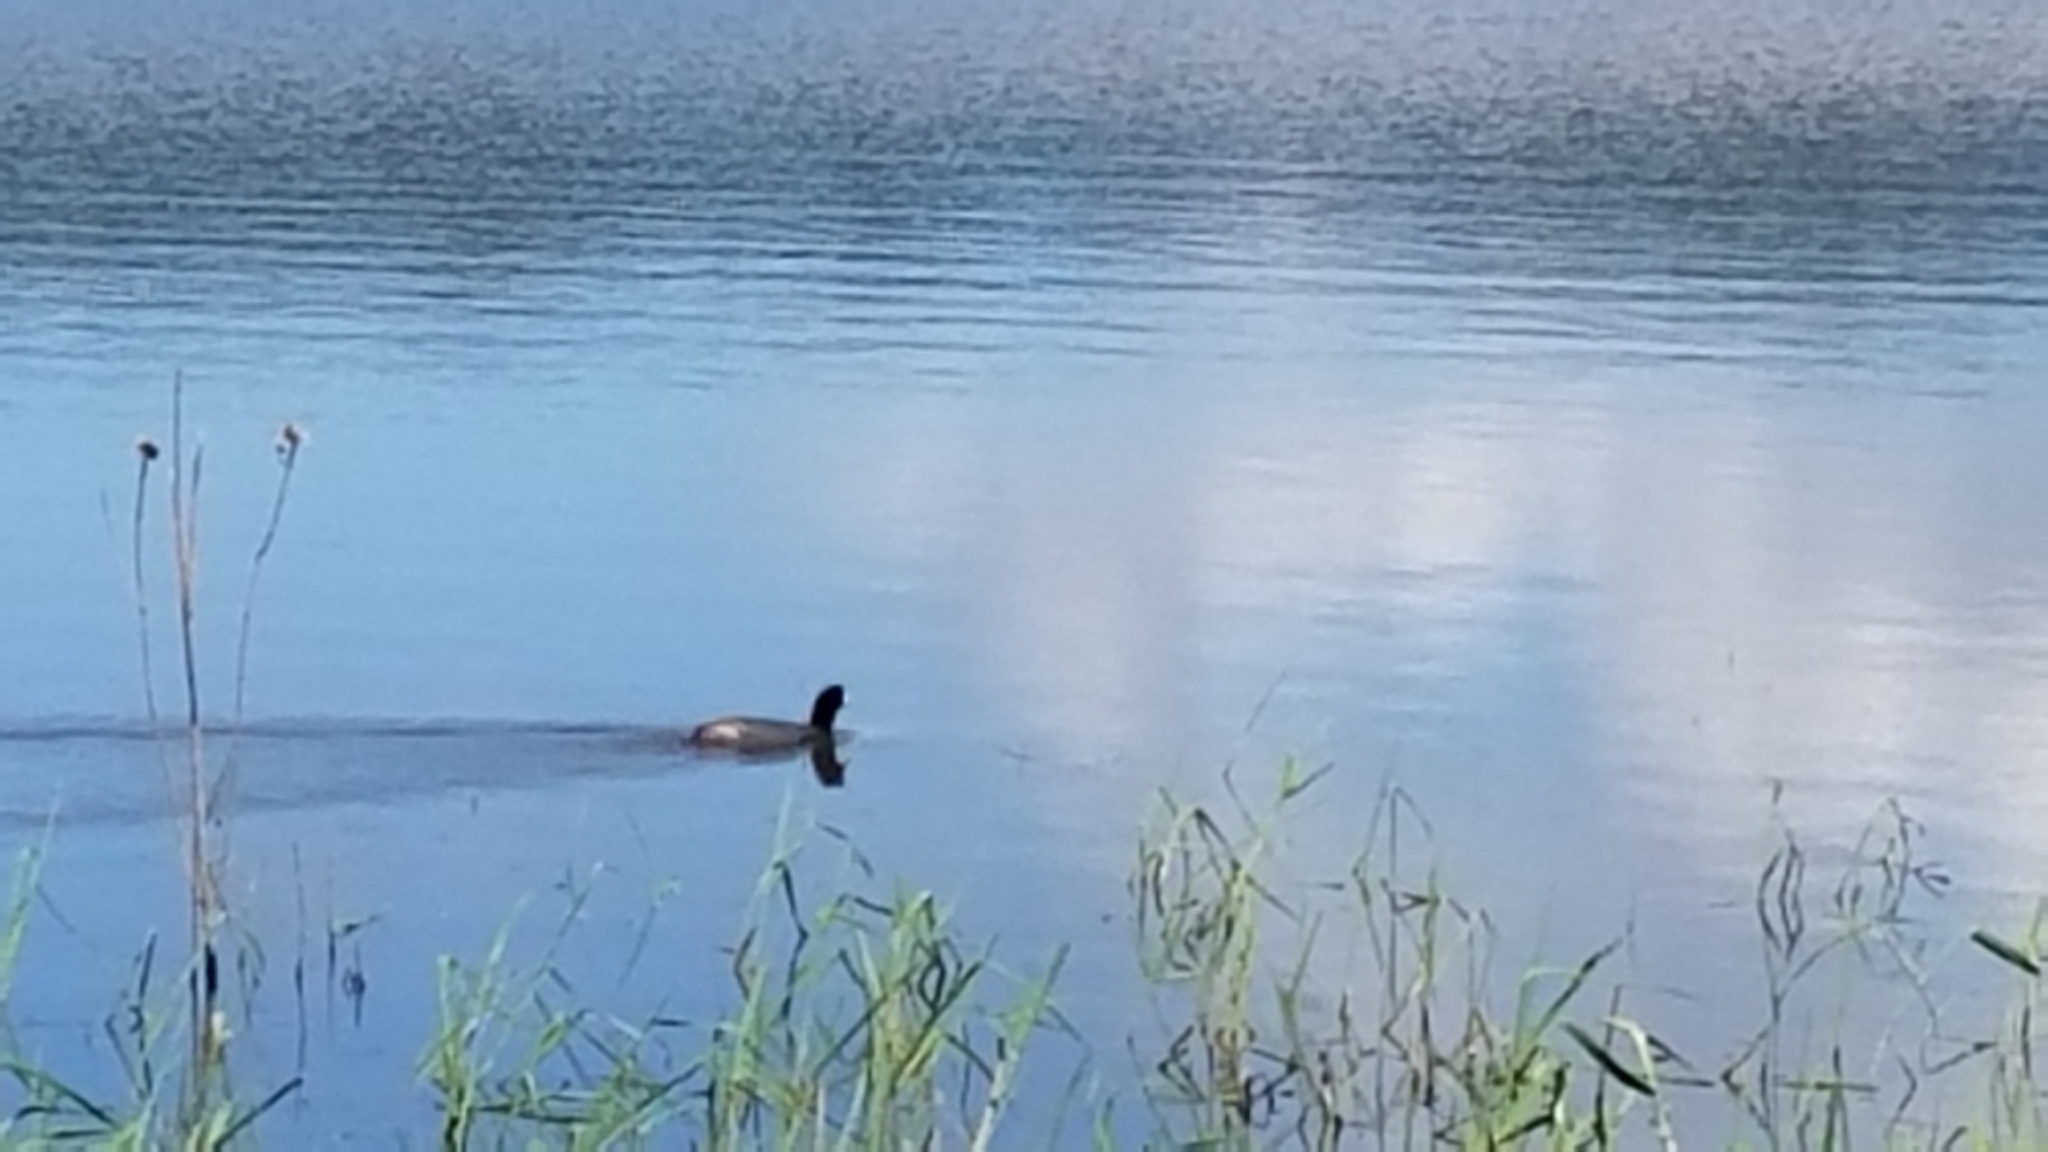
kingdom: Animalia
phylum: Chordata
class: Aves
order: Gruiformes
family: Rallidae
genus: Fulica
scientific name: Fulica americana
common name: American coot
